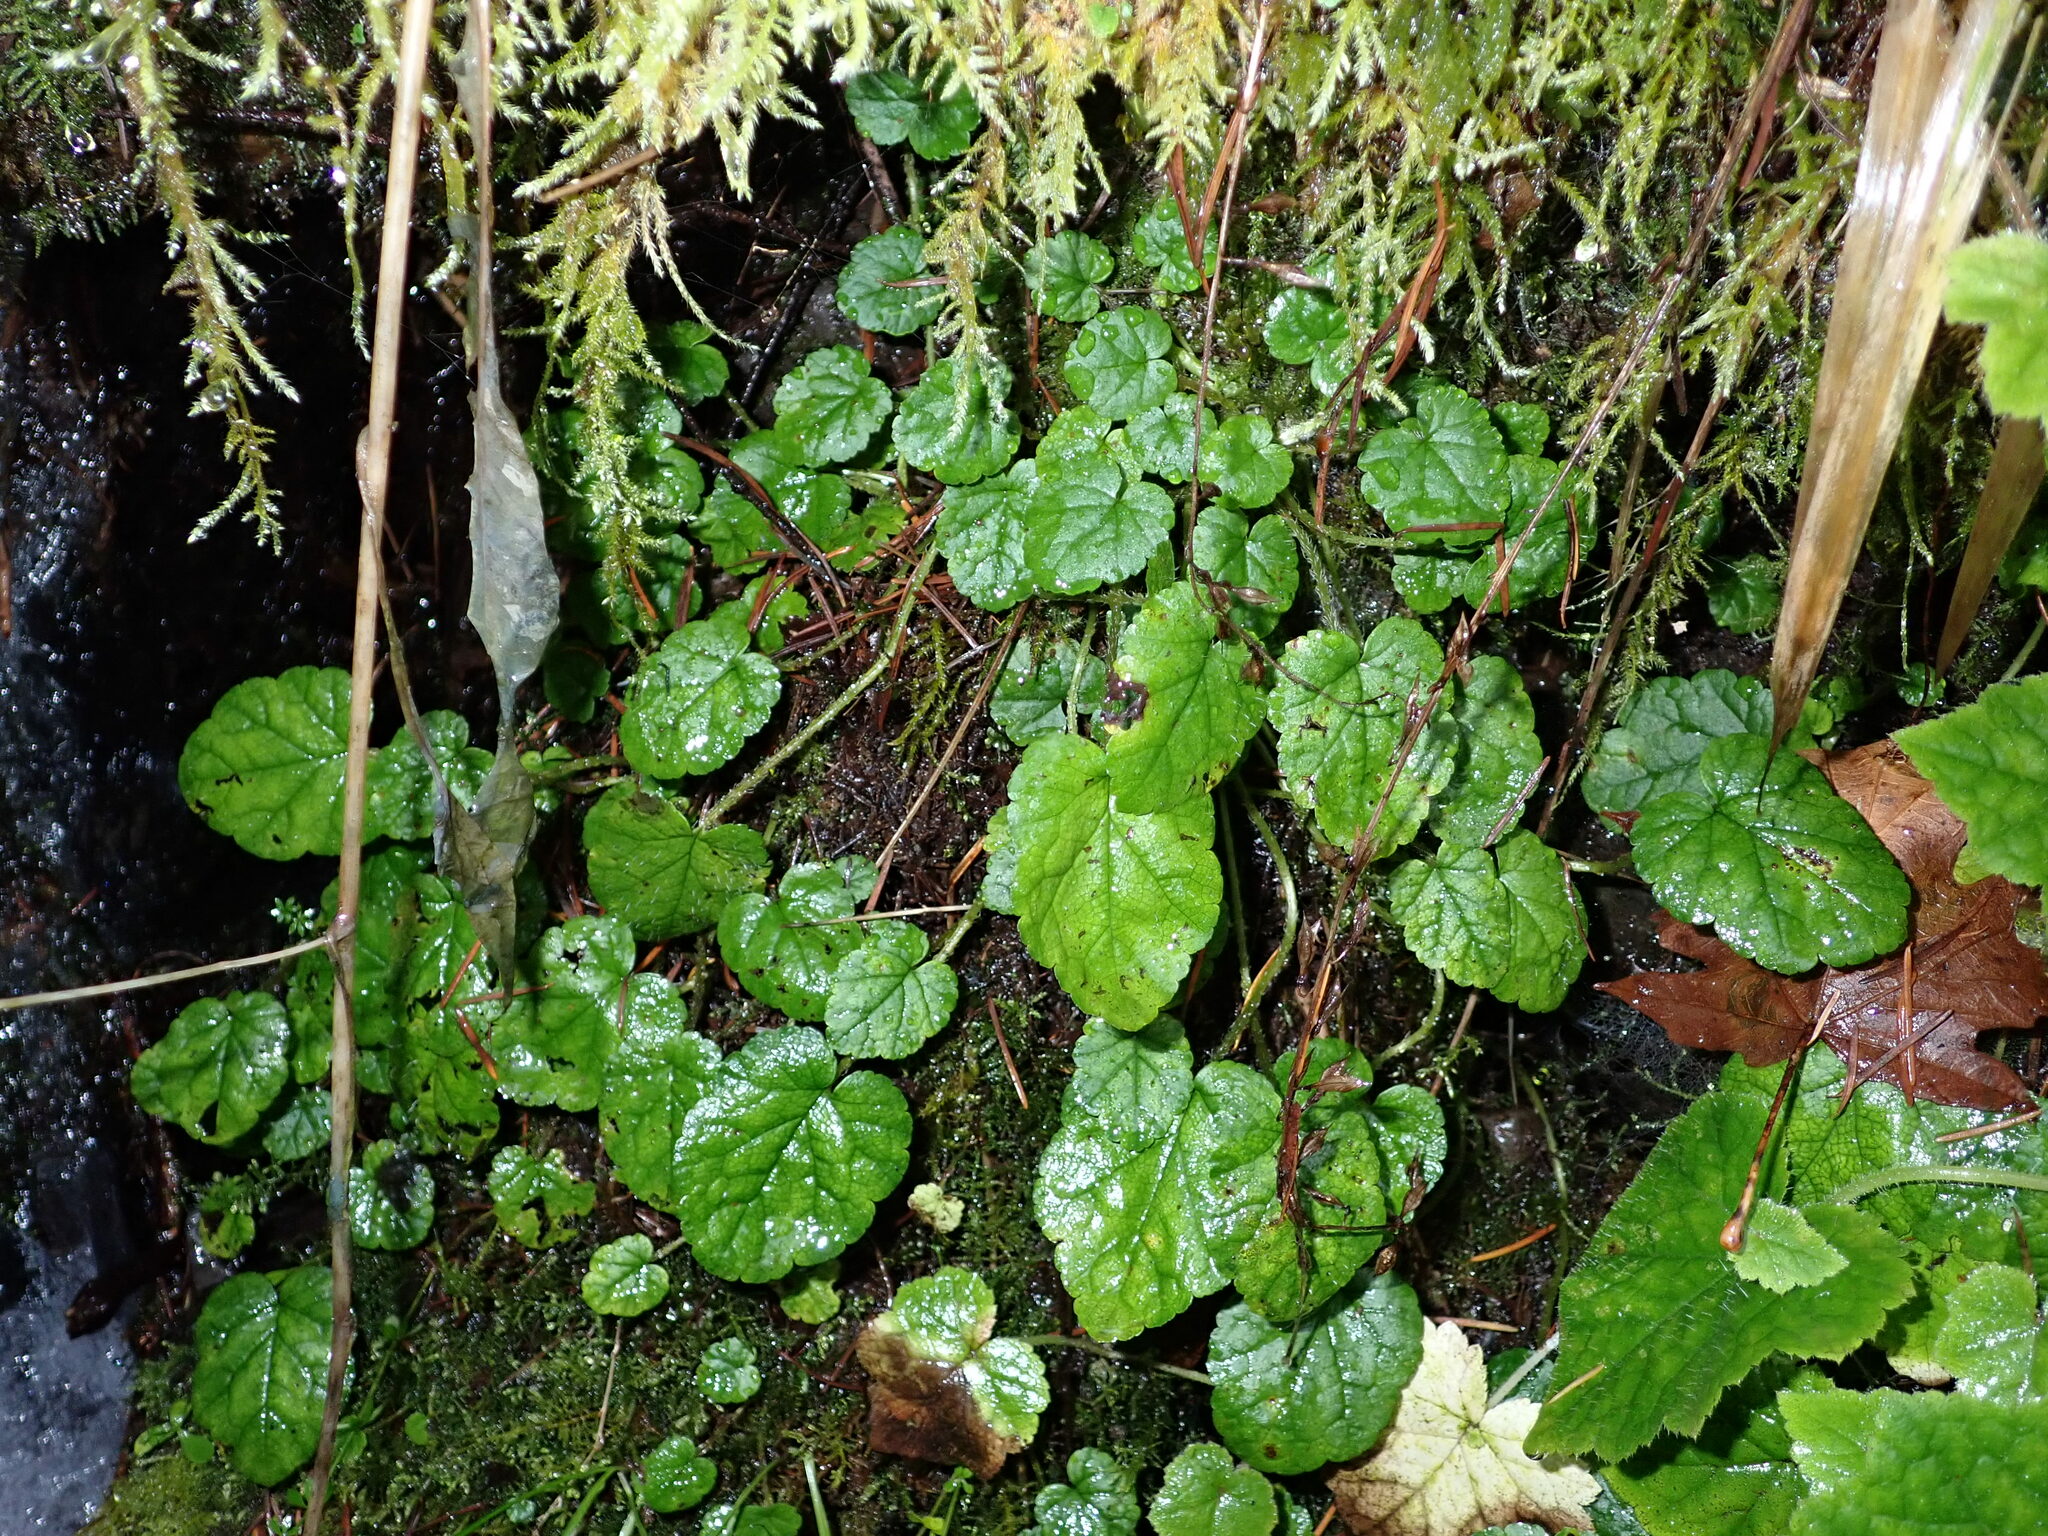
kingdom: Plantae
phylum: Tracheophyta
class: Magnoliopsida
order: Saxifragales
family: Saxifragaceae
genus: Brewerimitella
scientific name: Brewerimitella ovalis
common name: Coastal bishop's-cap
